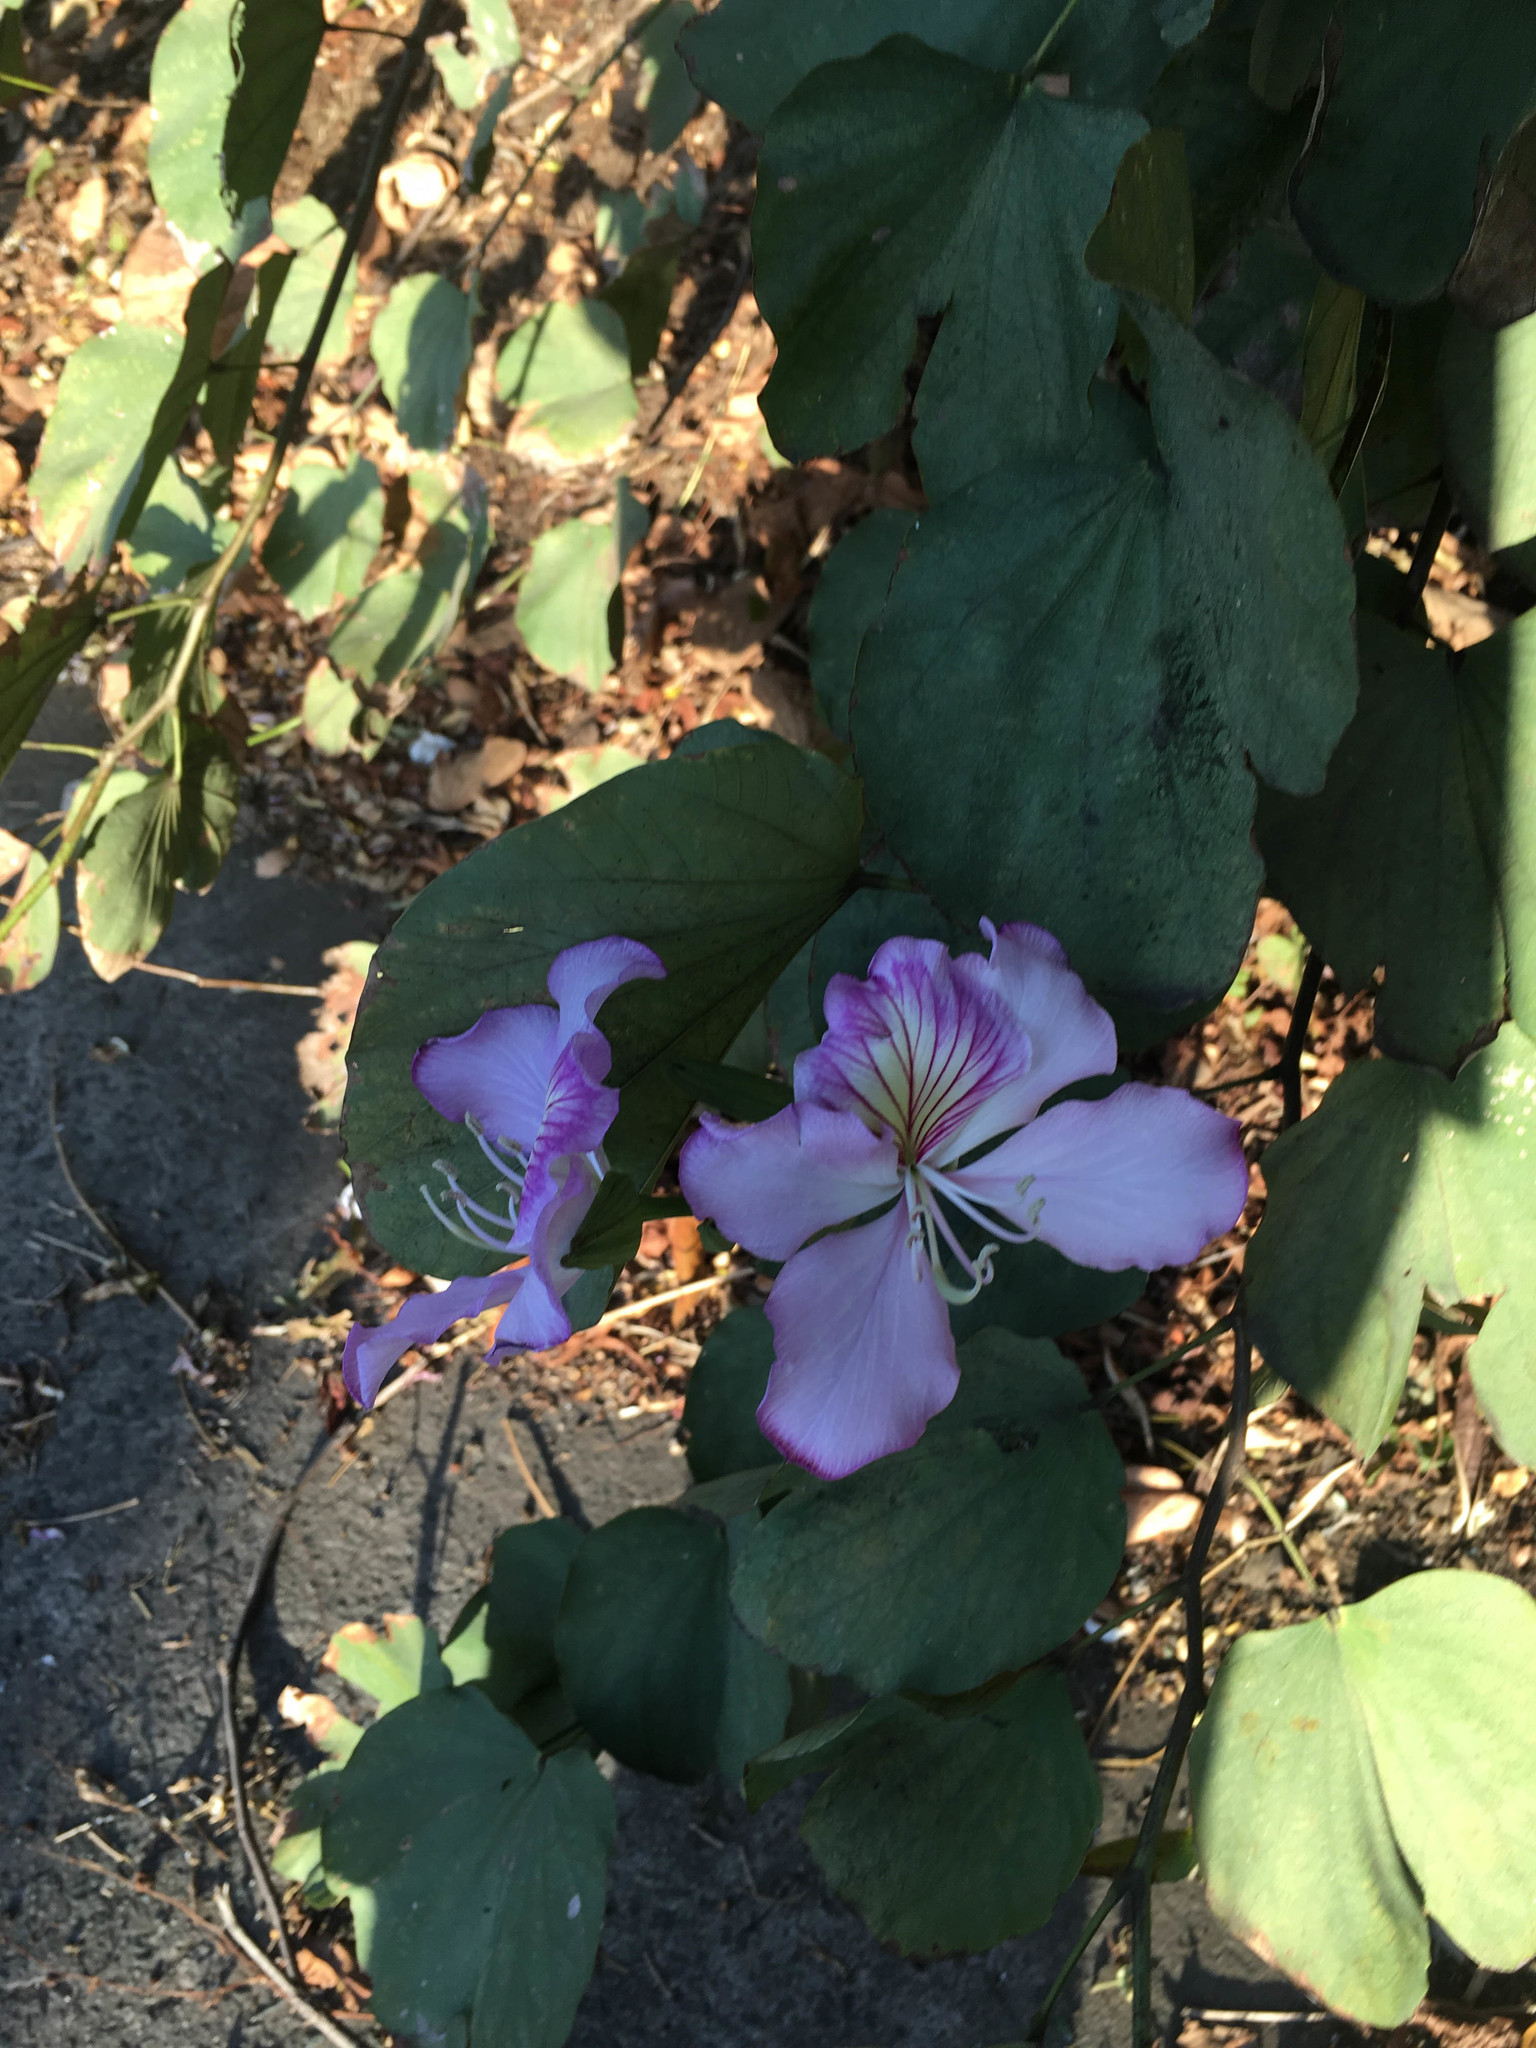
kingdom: Plantae
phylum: Tracheophyta
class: Magnoliopsida
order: Fabales
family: Fabaceae
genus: Bauhinia
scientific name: Bauhinia variegata
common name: Mountain ebony
